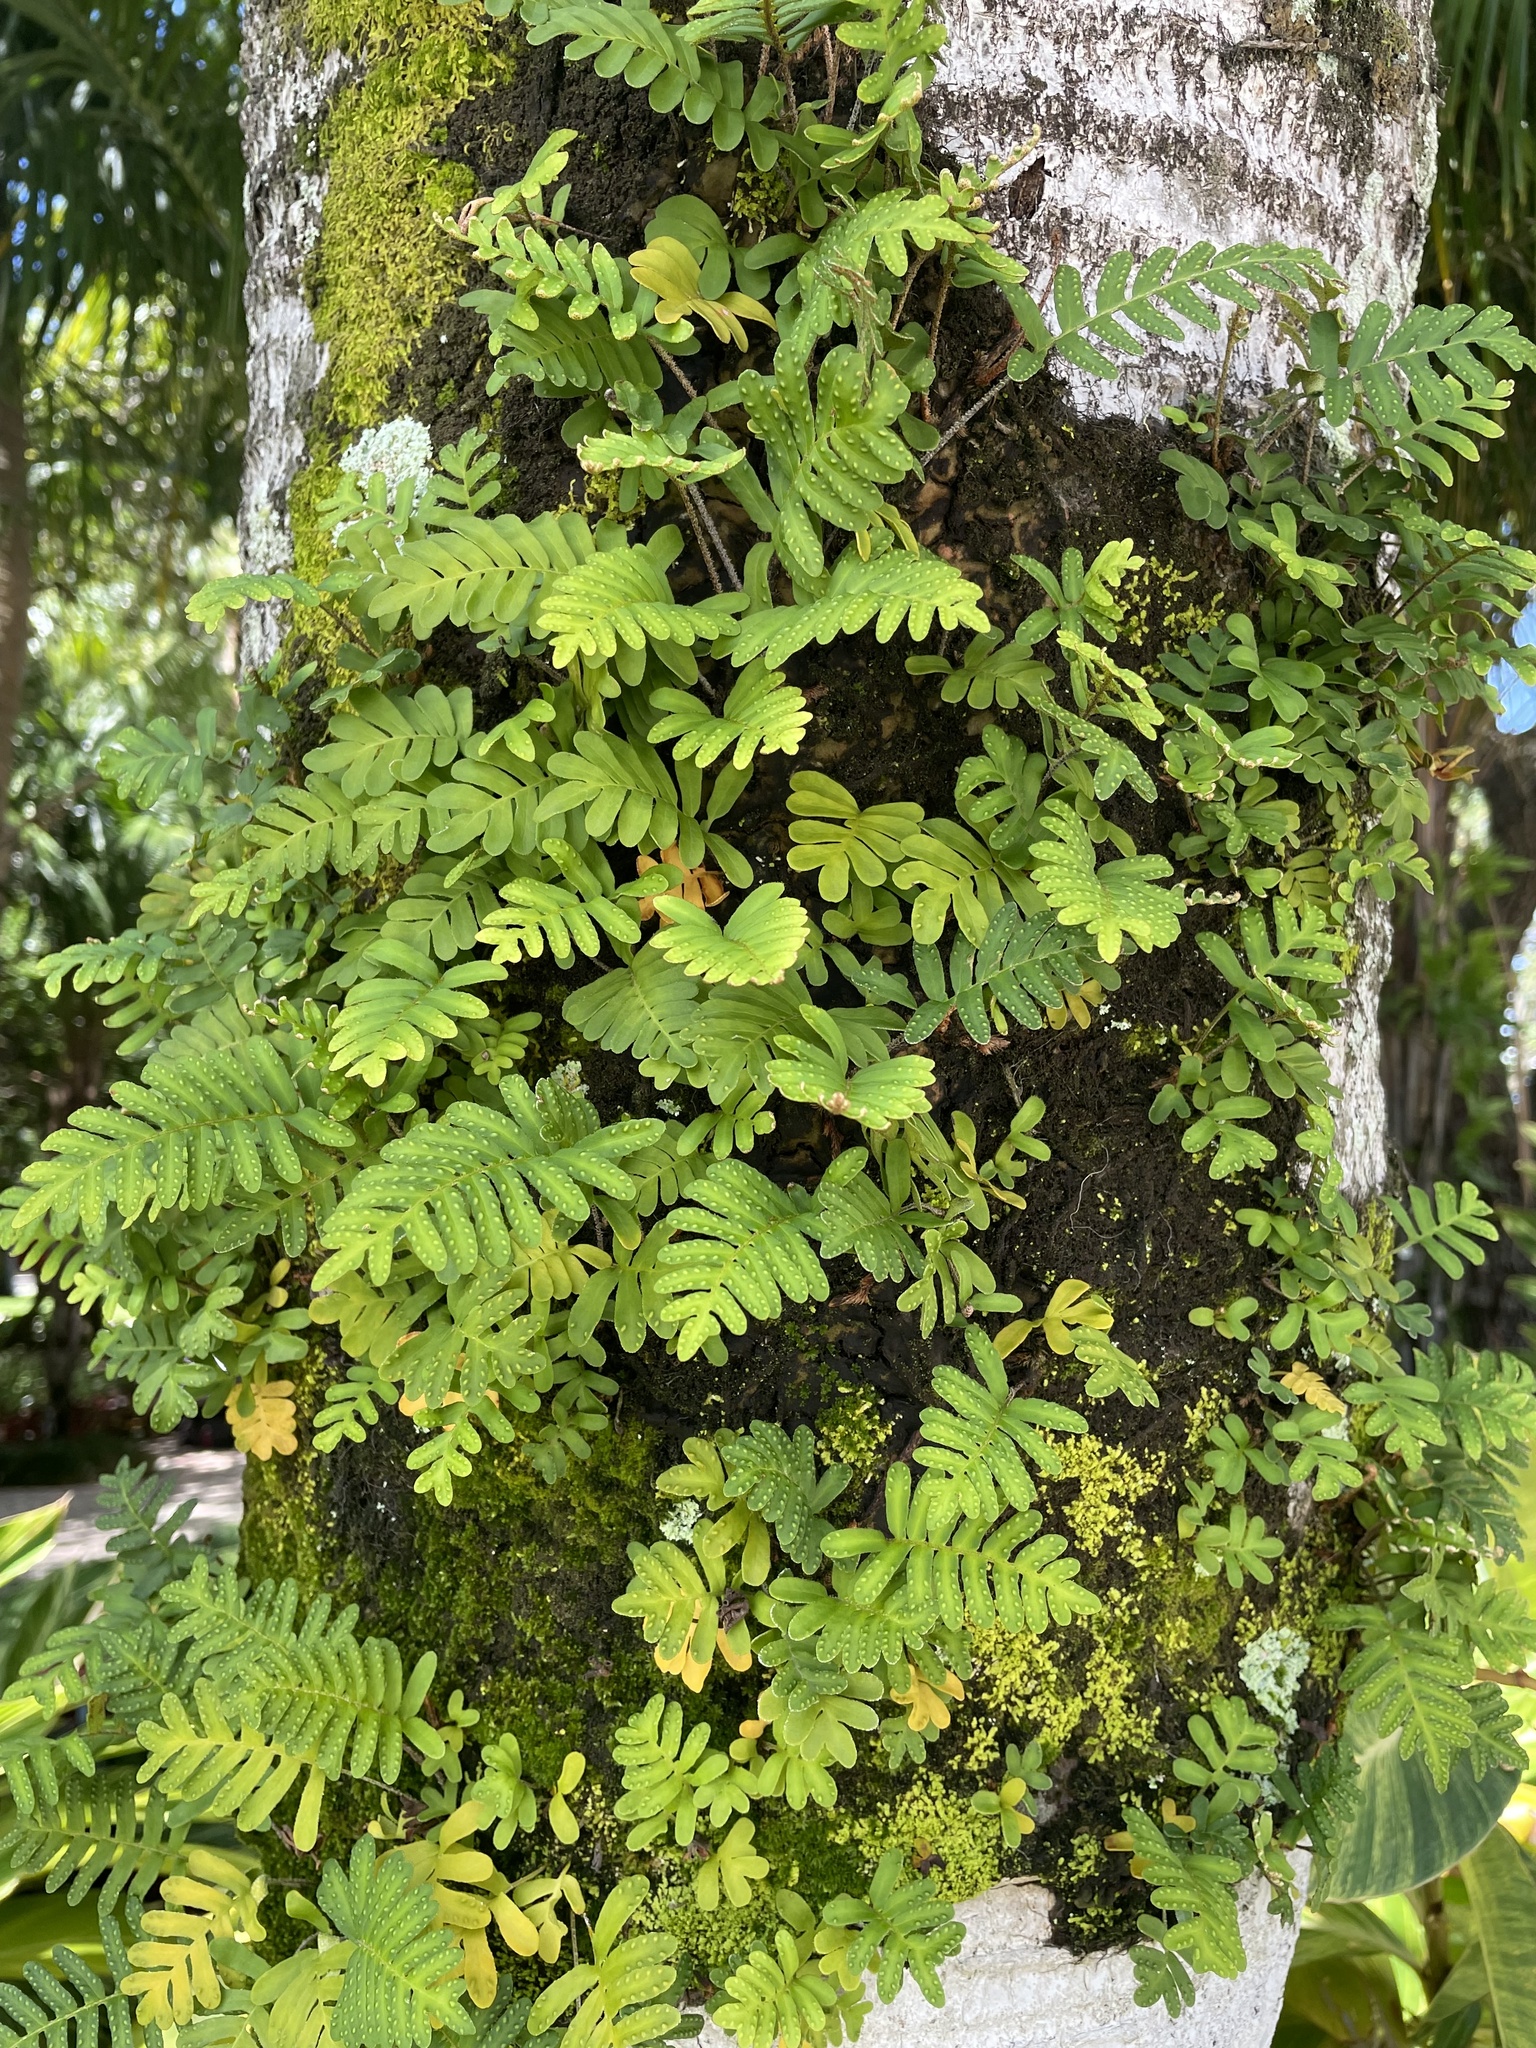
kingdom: Plantae
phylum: Tracheophyta
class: Polypodiopsida
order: Polypodiales
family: Polypodiaceae
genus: Pleopeltis
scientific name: Pleopeltis michauxiana
